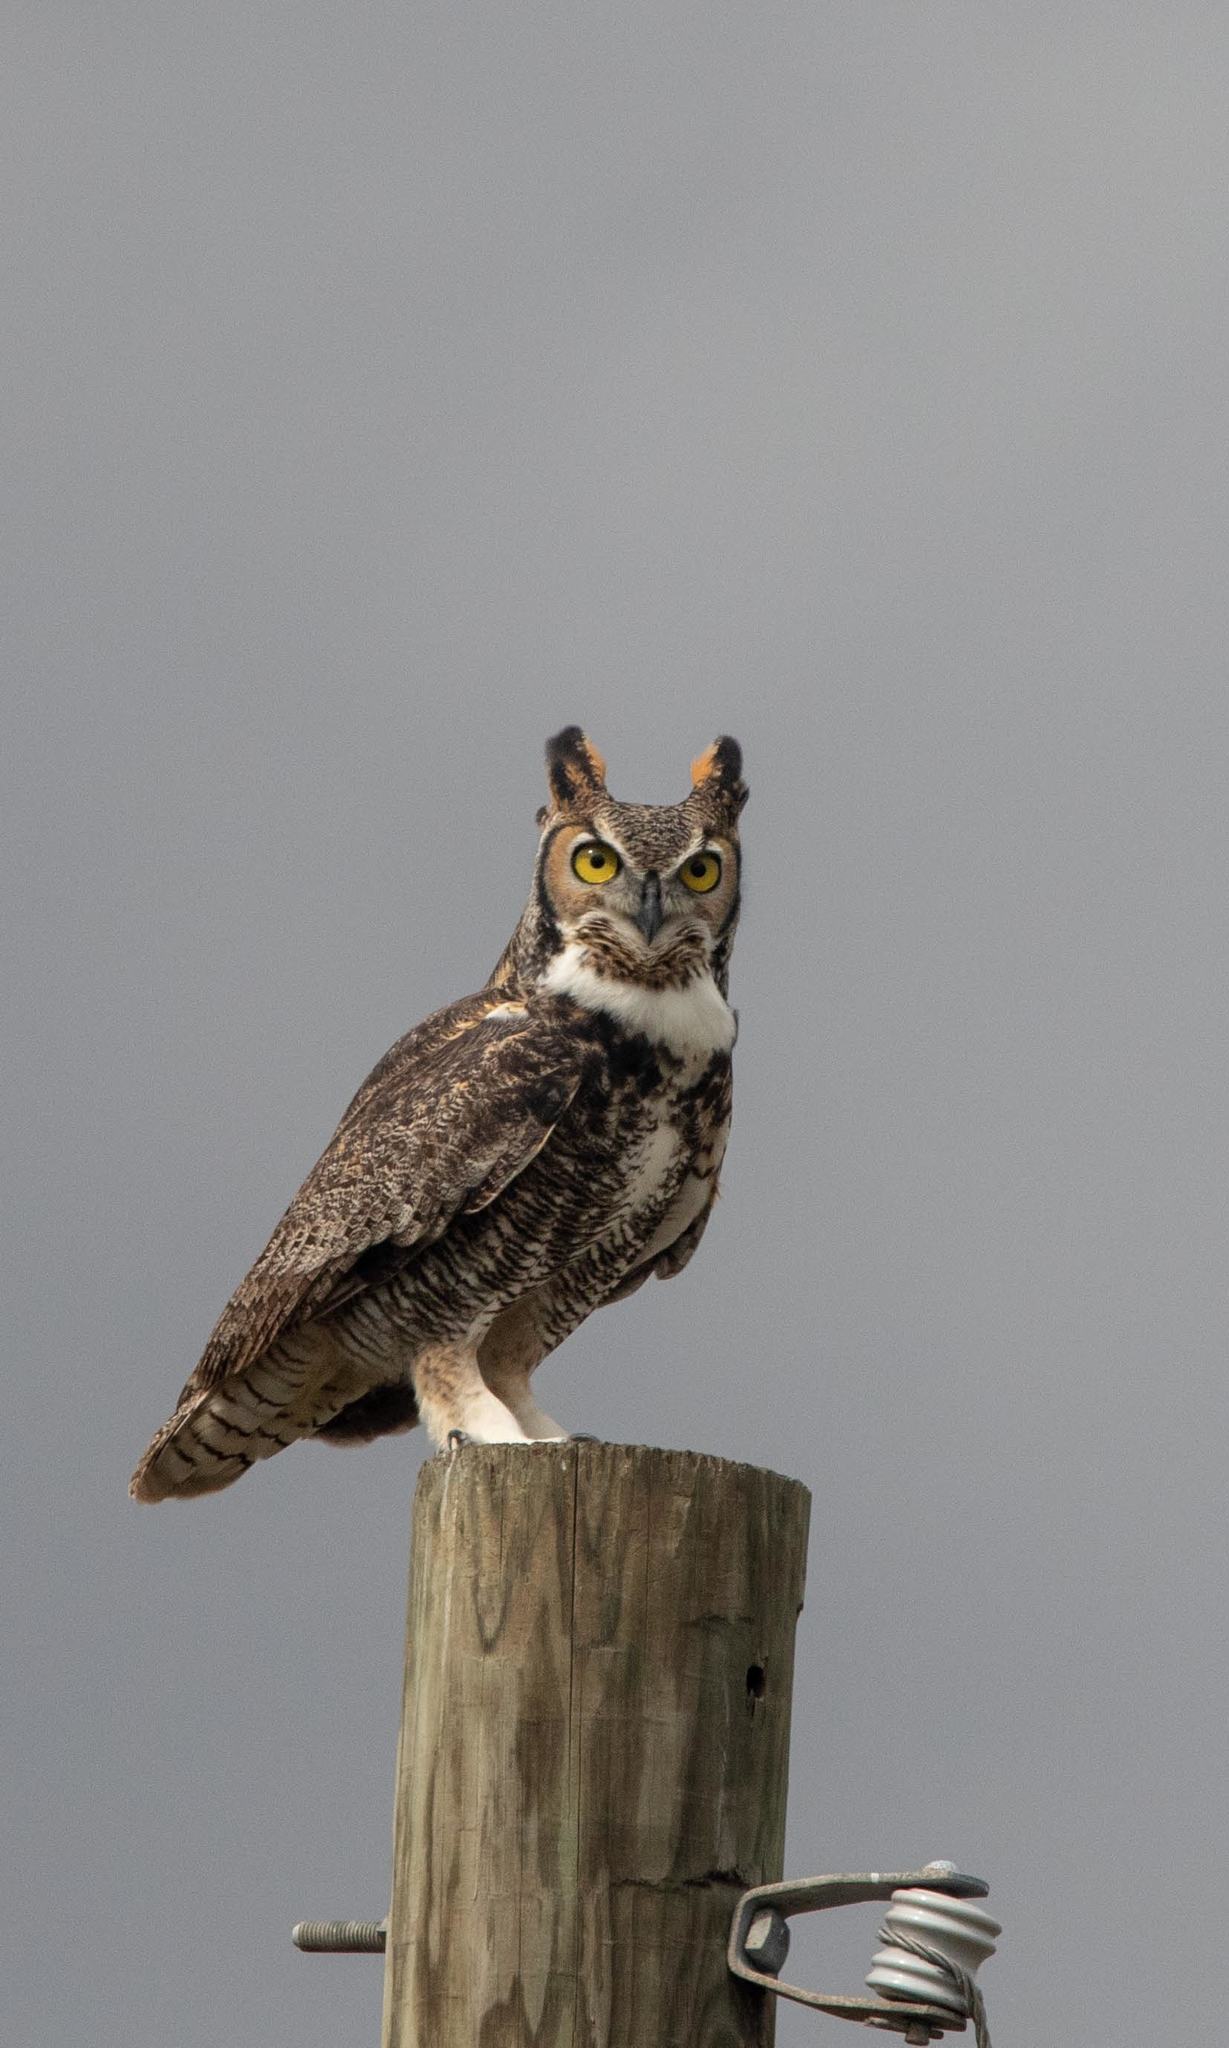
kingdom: Animalia
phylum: Chordata
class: Aves
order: Strigiformes
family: Strigidae
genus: Bubo
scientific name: Bubo virginianus
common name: Great horned owl
